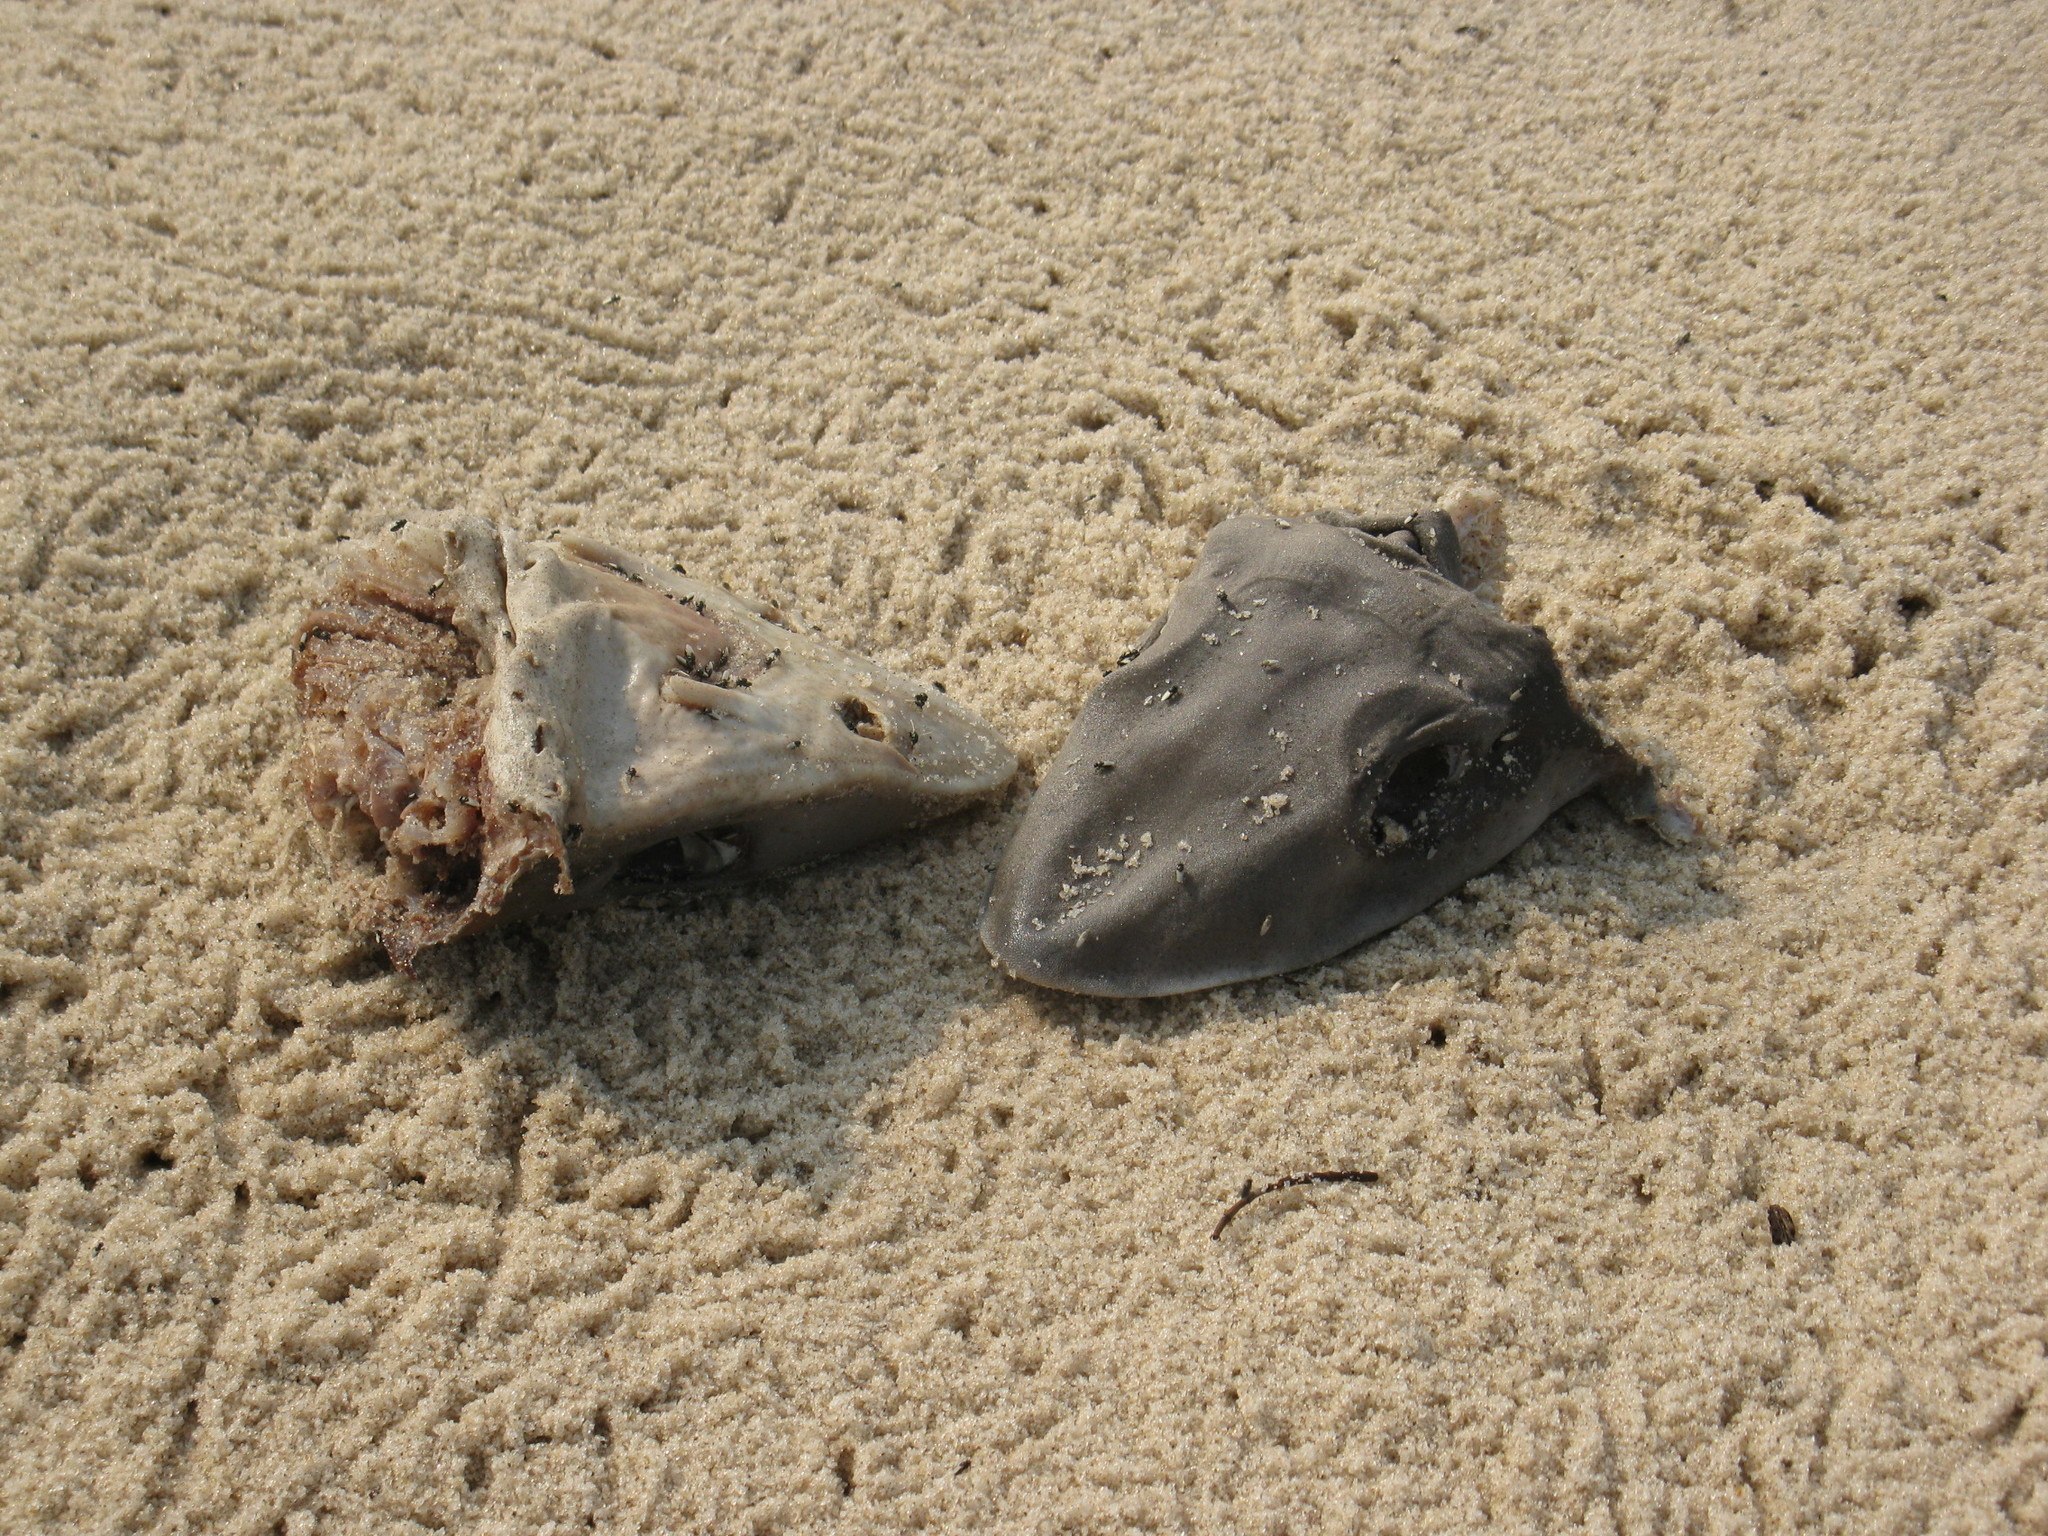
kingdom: Animalia
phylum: Chordata
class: Elasmobranchii
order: Carcharhiniformes
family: Triakidae
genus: Mustelus
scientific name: Mustelus mustelus
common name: Smooth-hound
